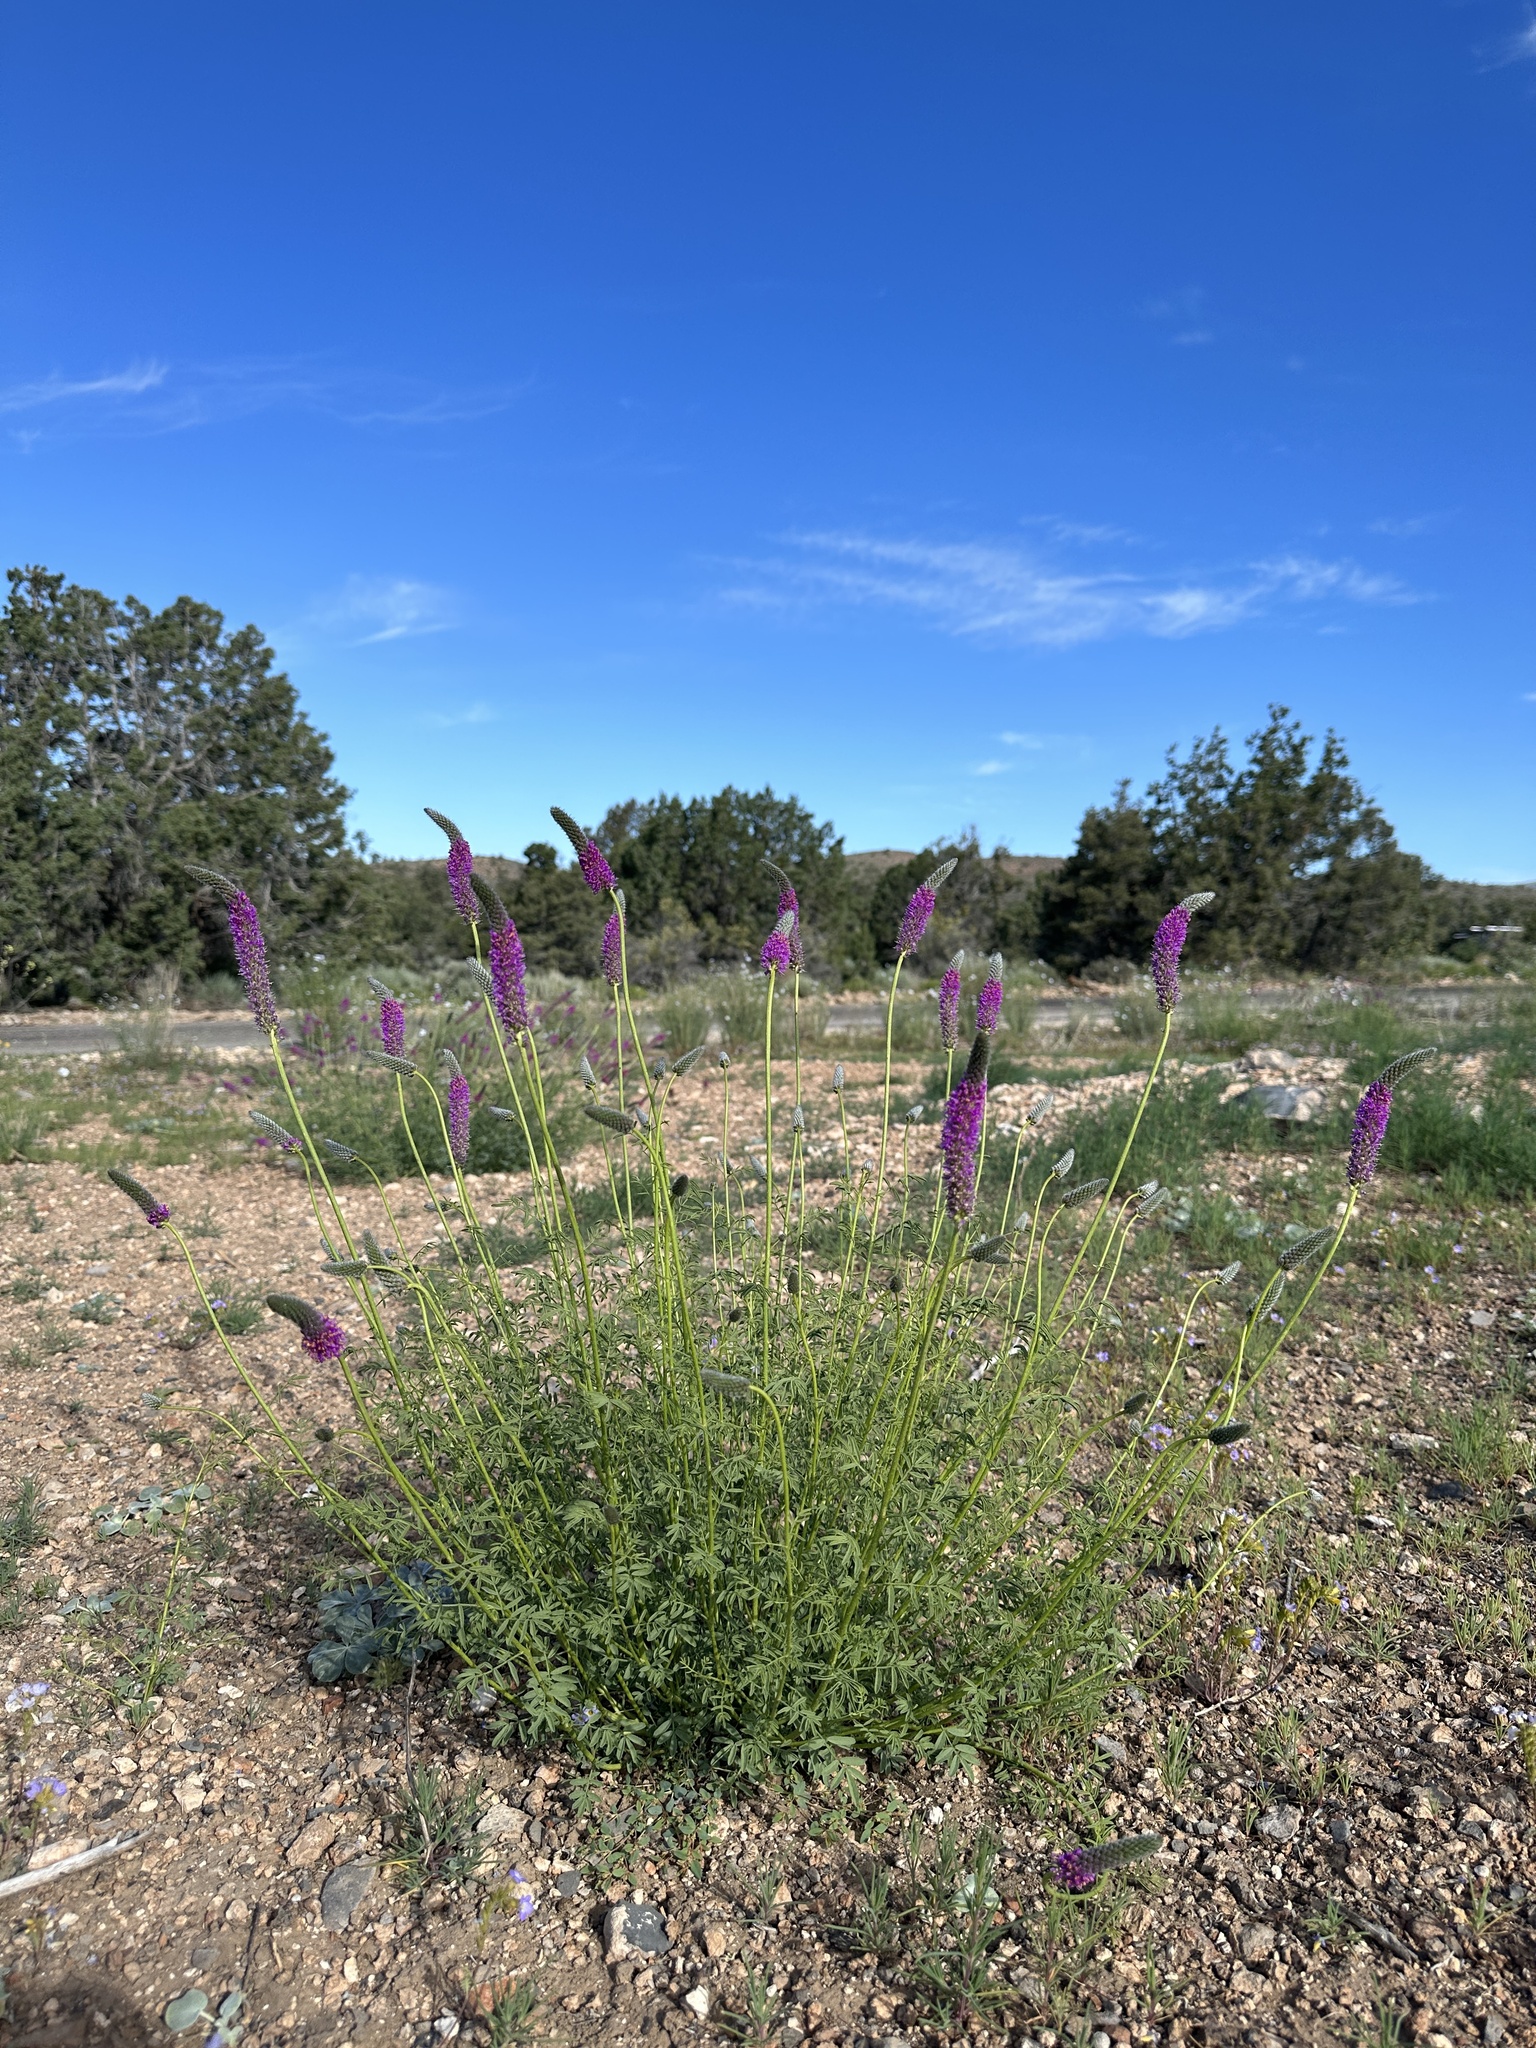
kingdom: Plantae
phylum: Tracheophyta
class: Magnoliopsida
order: Fabales
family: Fabaceae
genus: Dalea
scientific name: Dalea searlsiae
